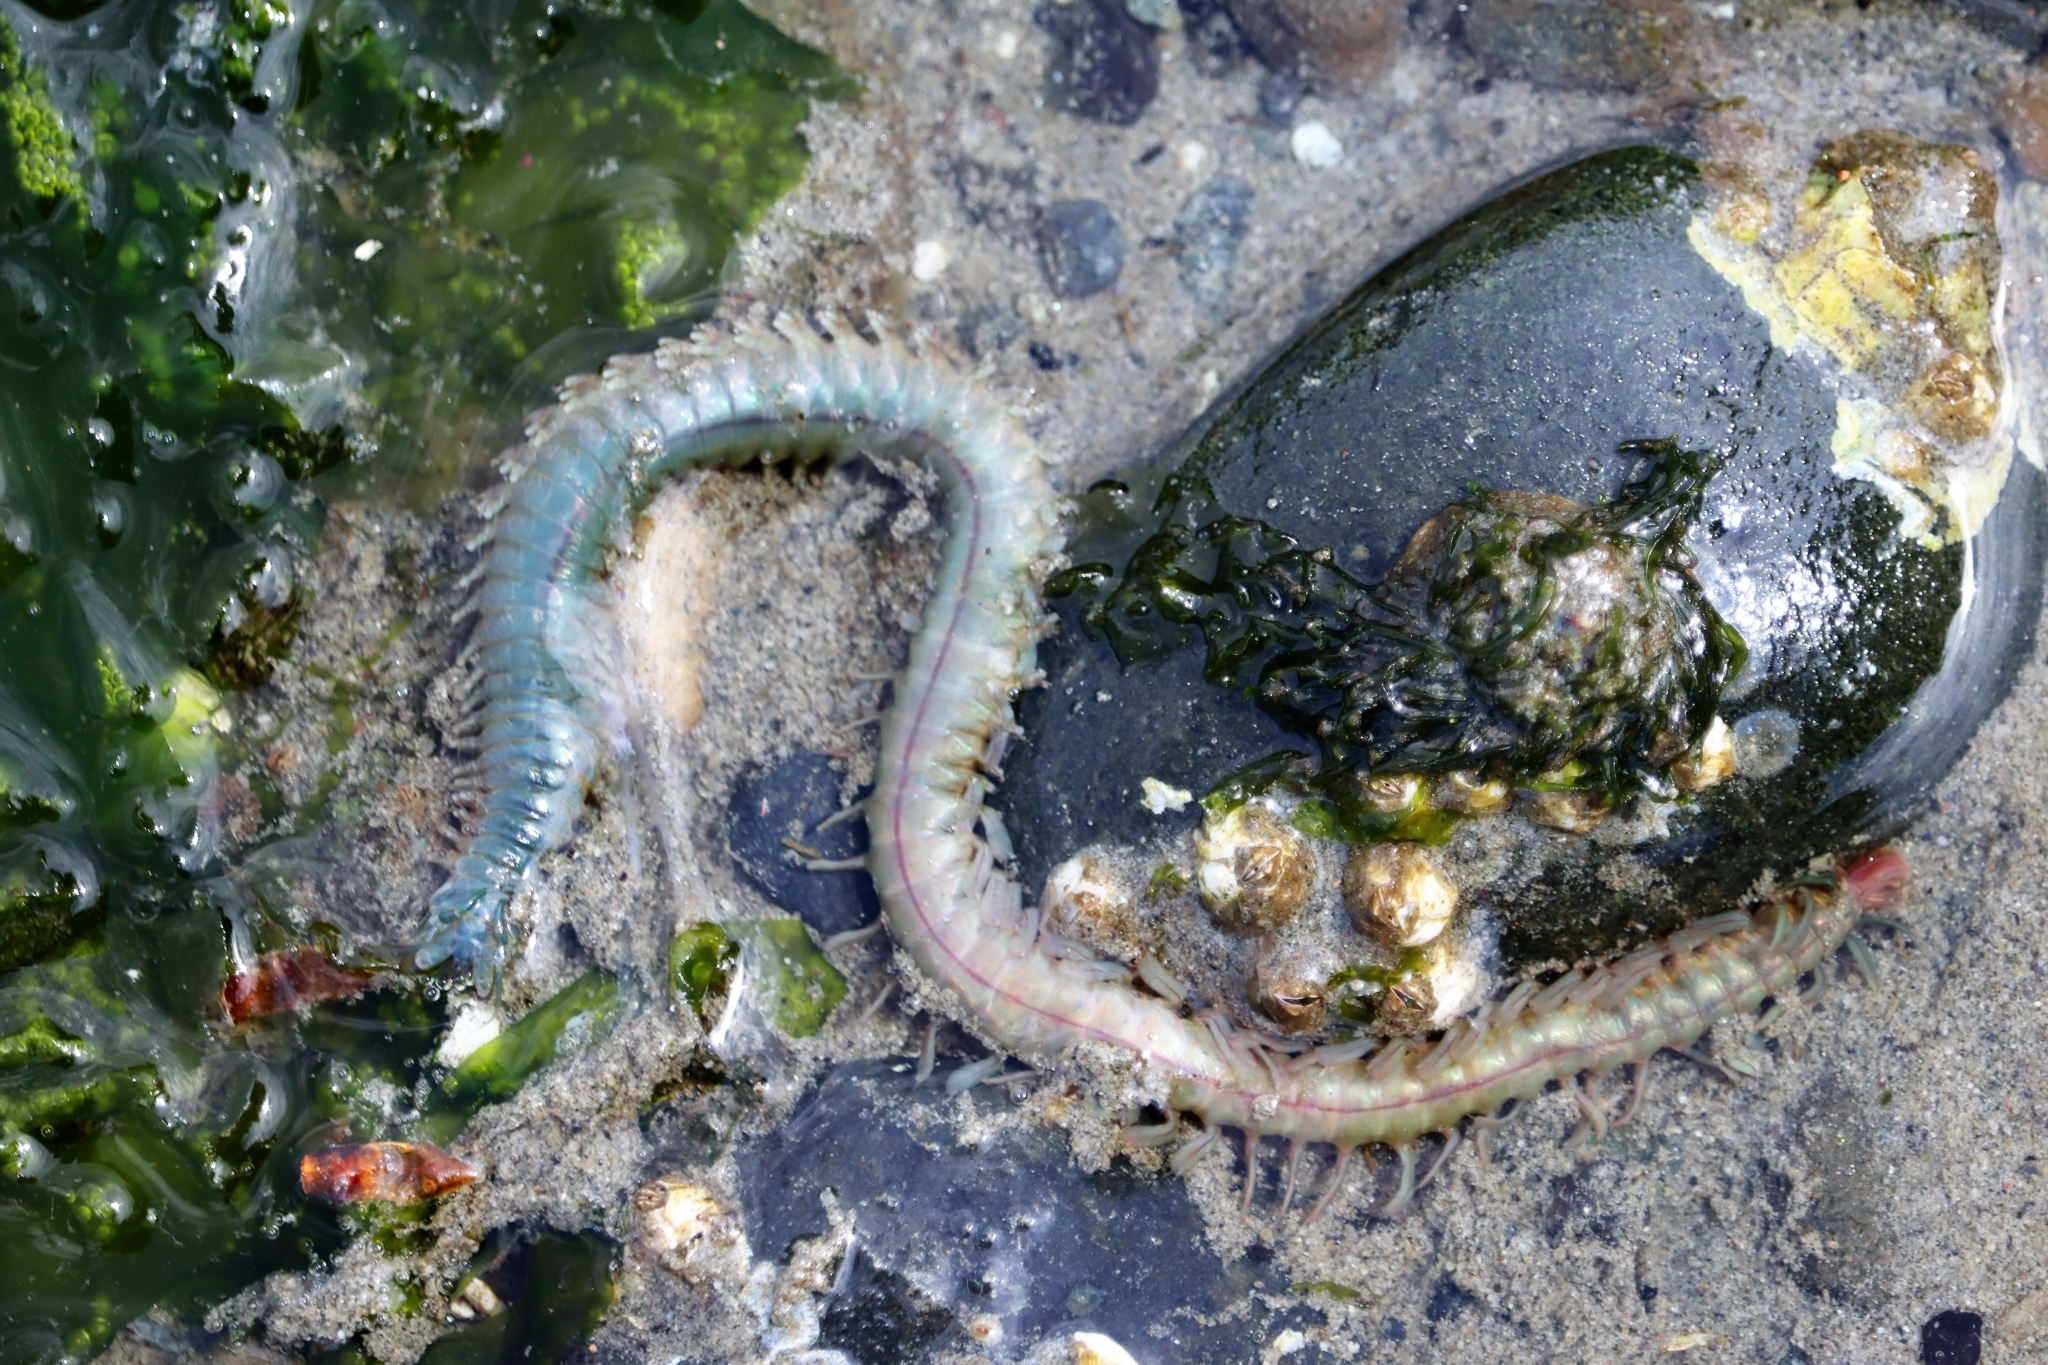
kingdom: Animalia
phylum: Annelida
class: Polychaeta
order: Phyllodocida
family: Nereididae
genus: Nereis
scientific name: Nereis vexillosa
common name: Mussel worm
